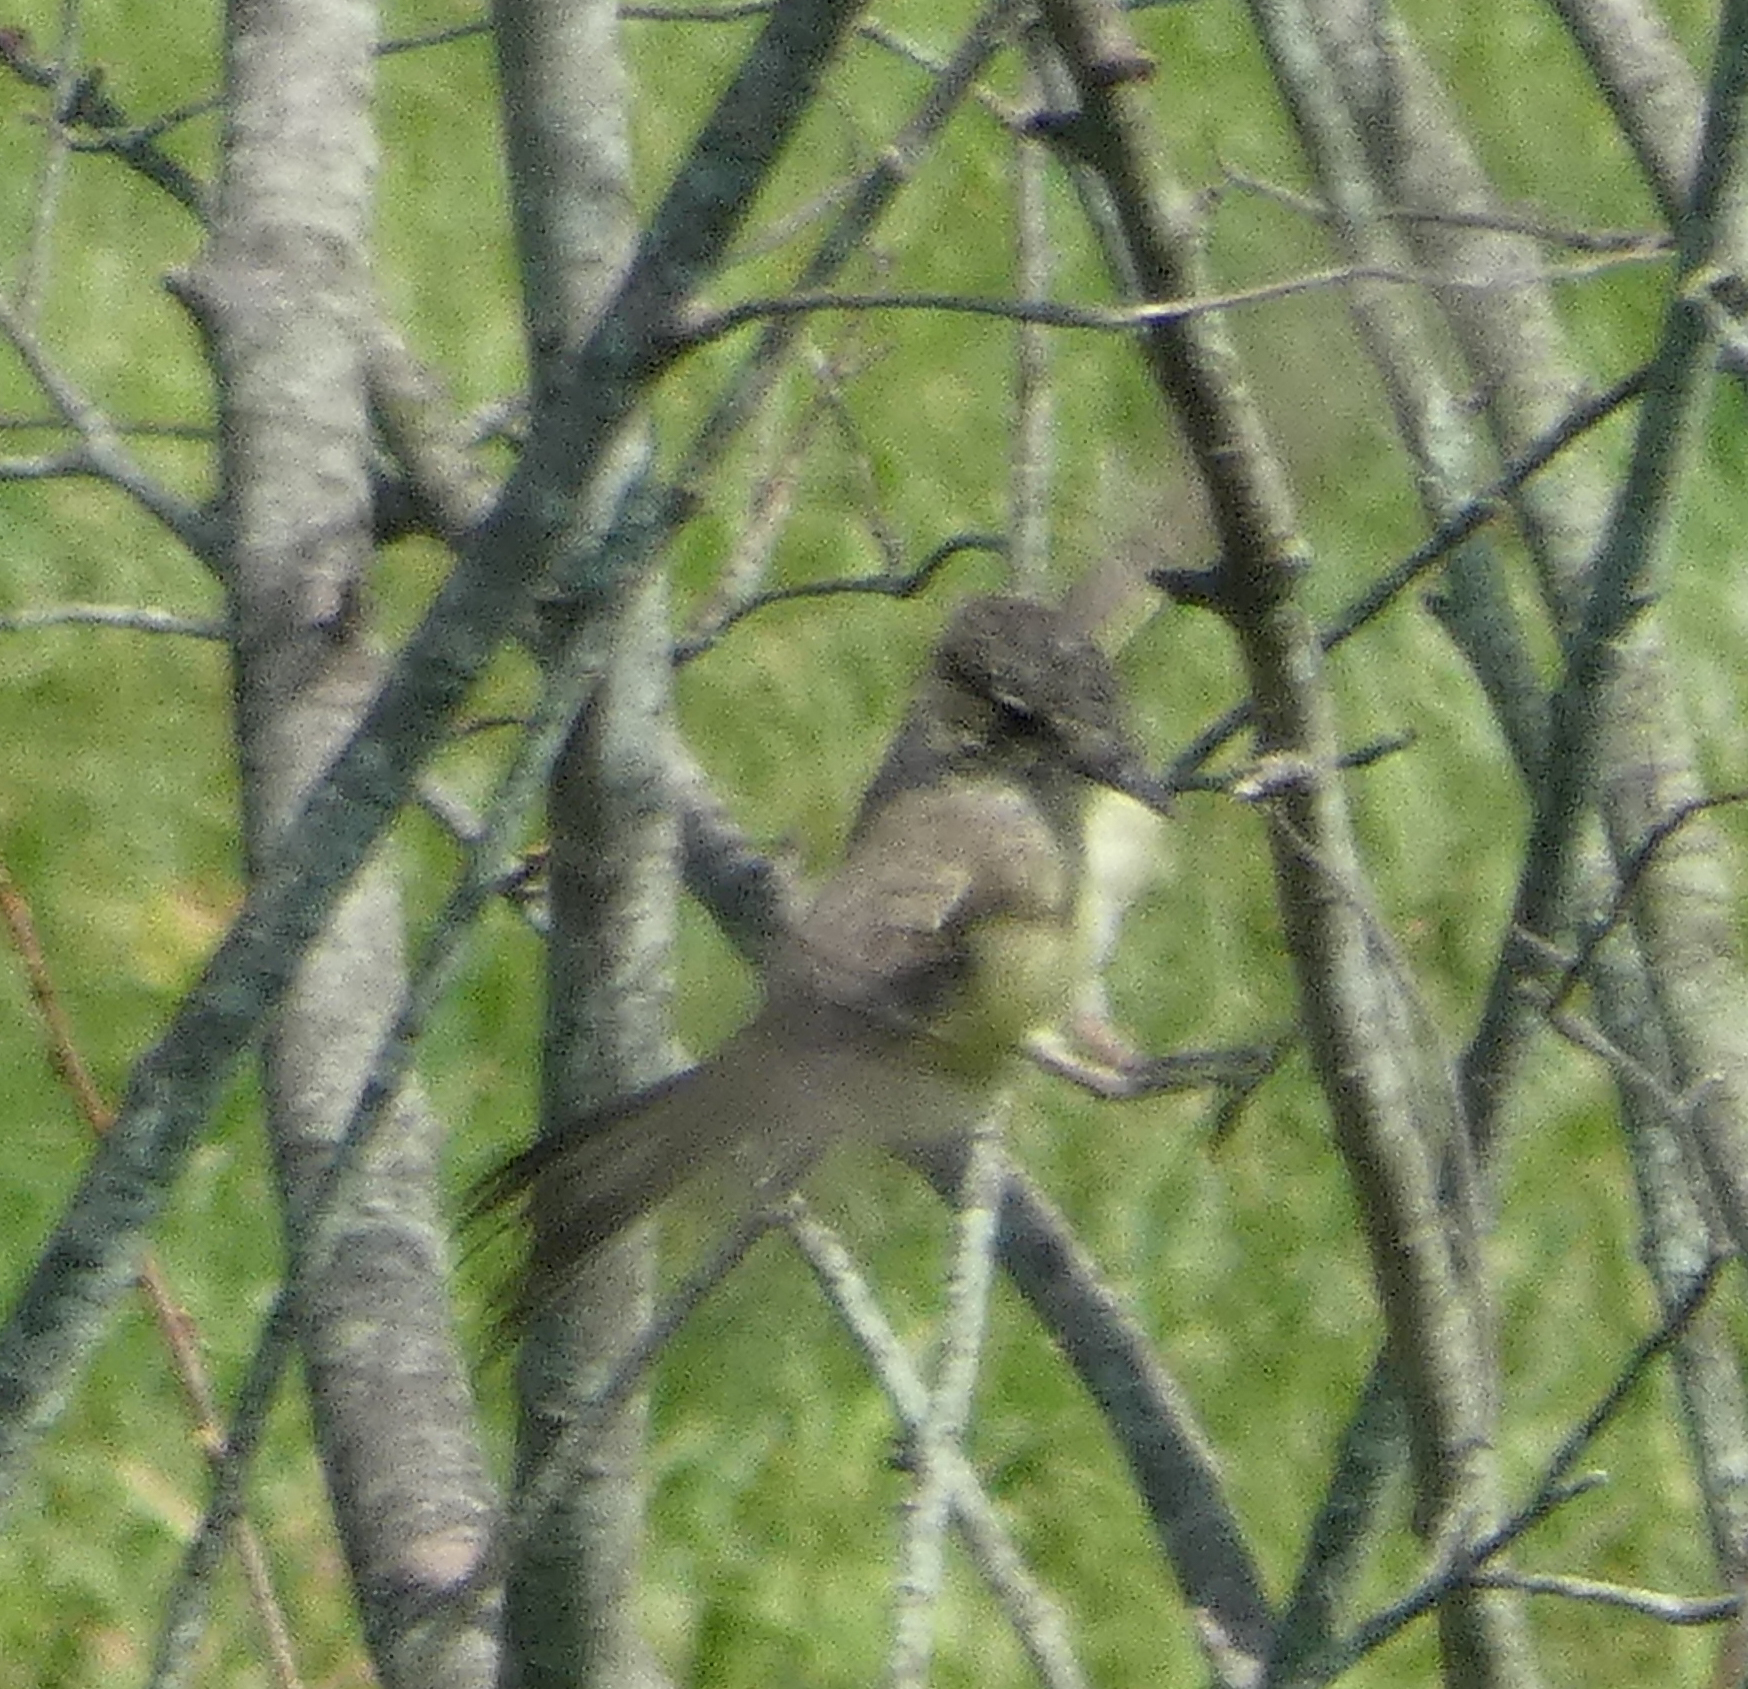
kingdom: Animalia
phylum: Chordata
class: Aves
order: Passeriformes
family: Tyrannidae
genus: Sayornis
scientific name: Sayornis phoebe
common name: Eastern phoebe
